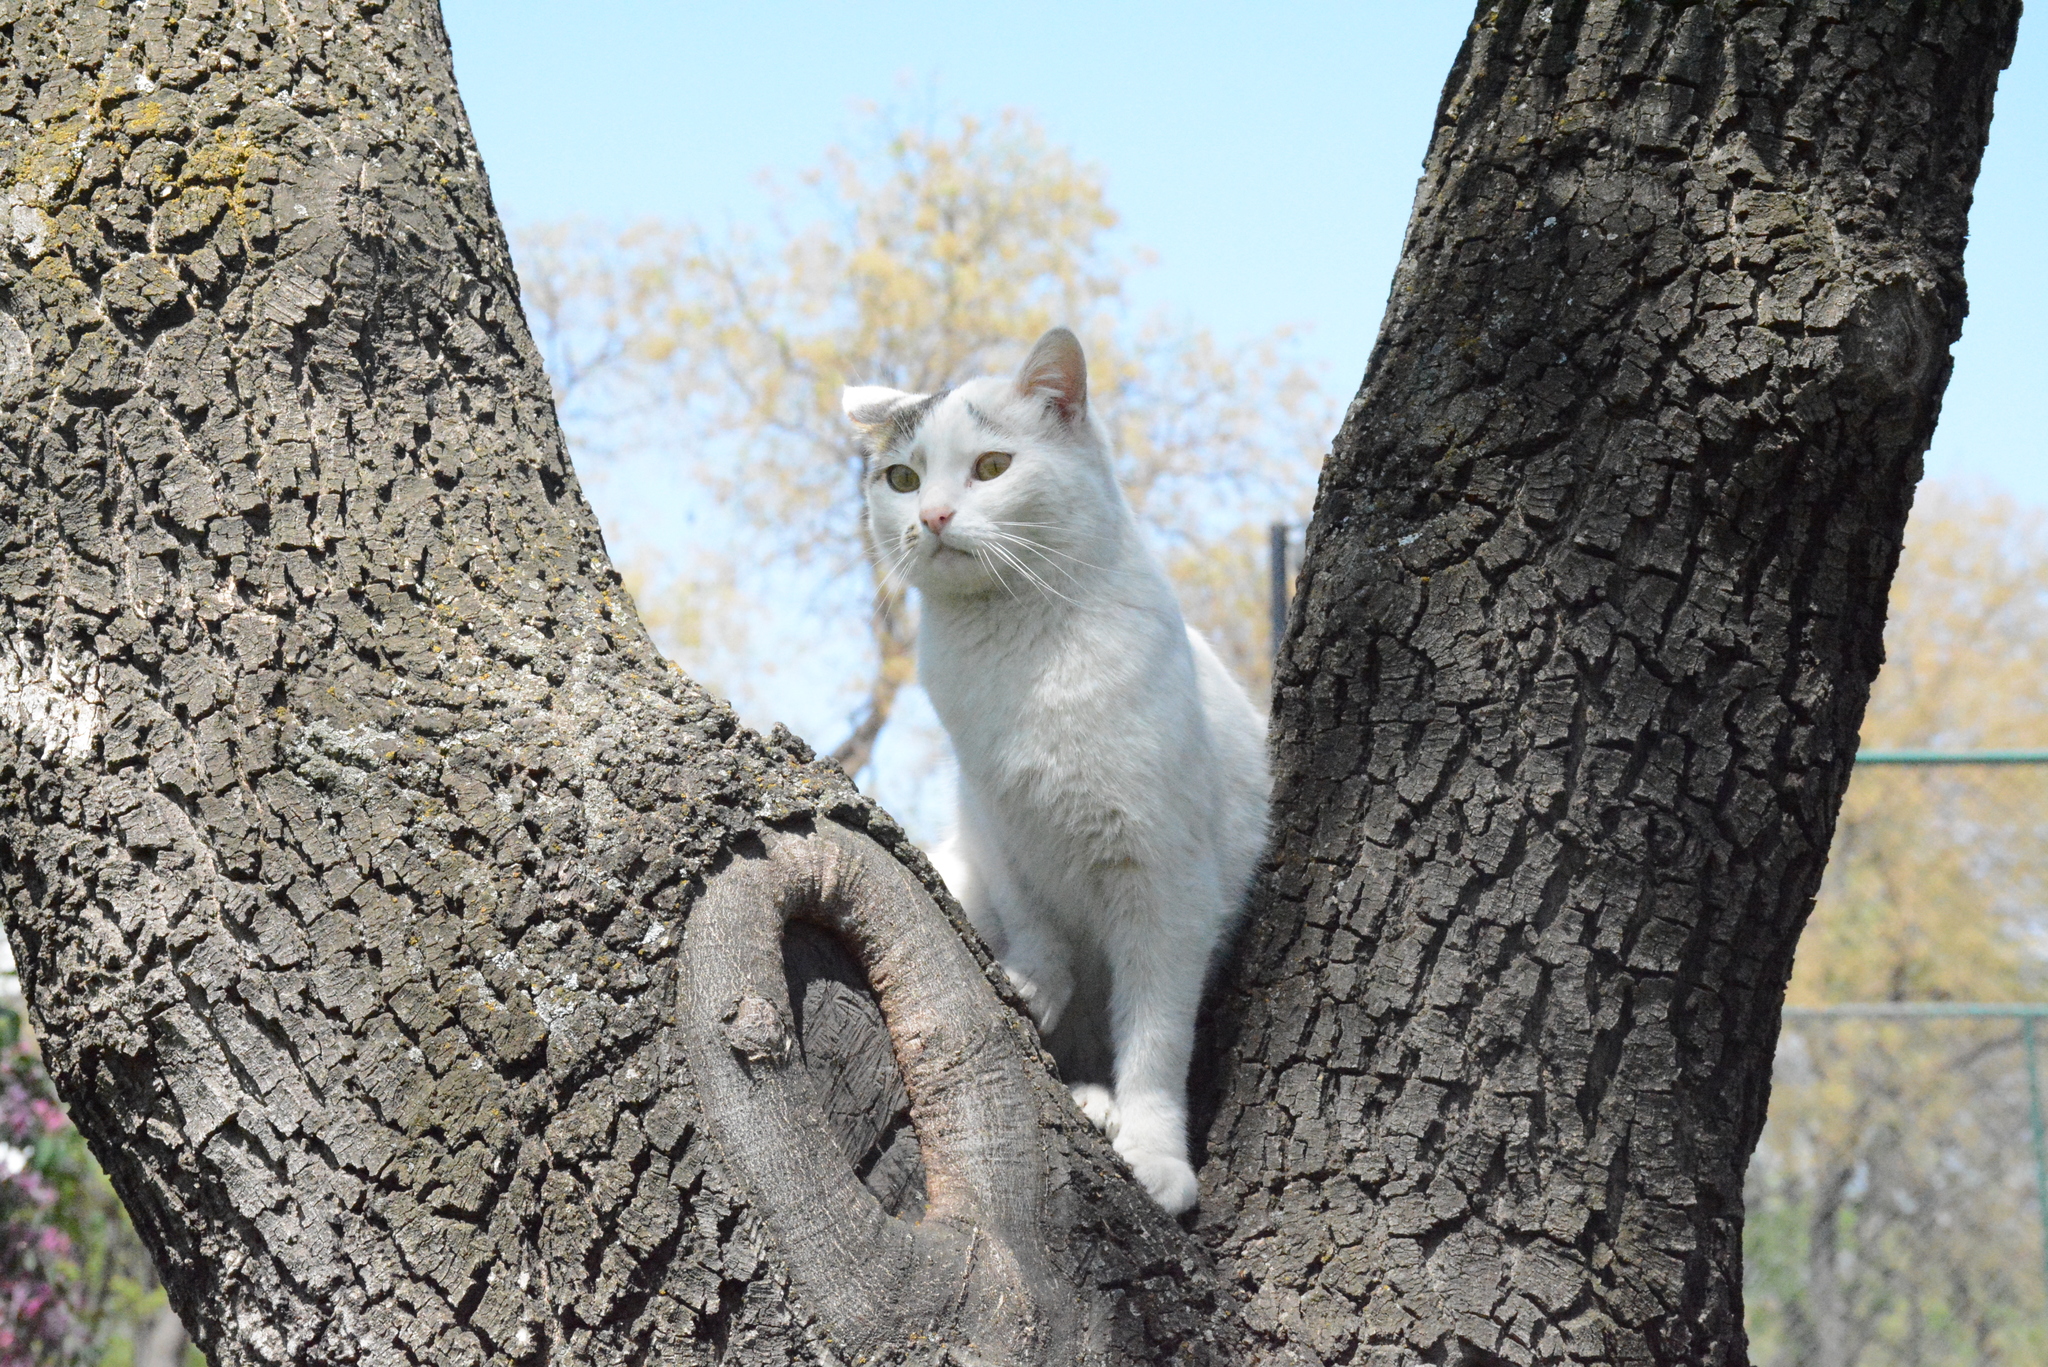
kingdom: Animalia
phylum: Chordata
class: Mammalia
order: Carnivora
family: Felidae
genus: Felis
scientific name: Felis catus
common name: Domestic cat
